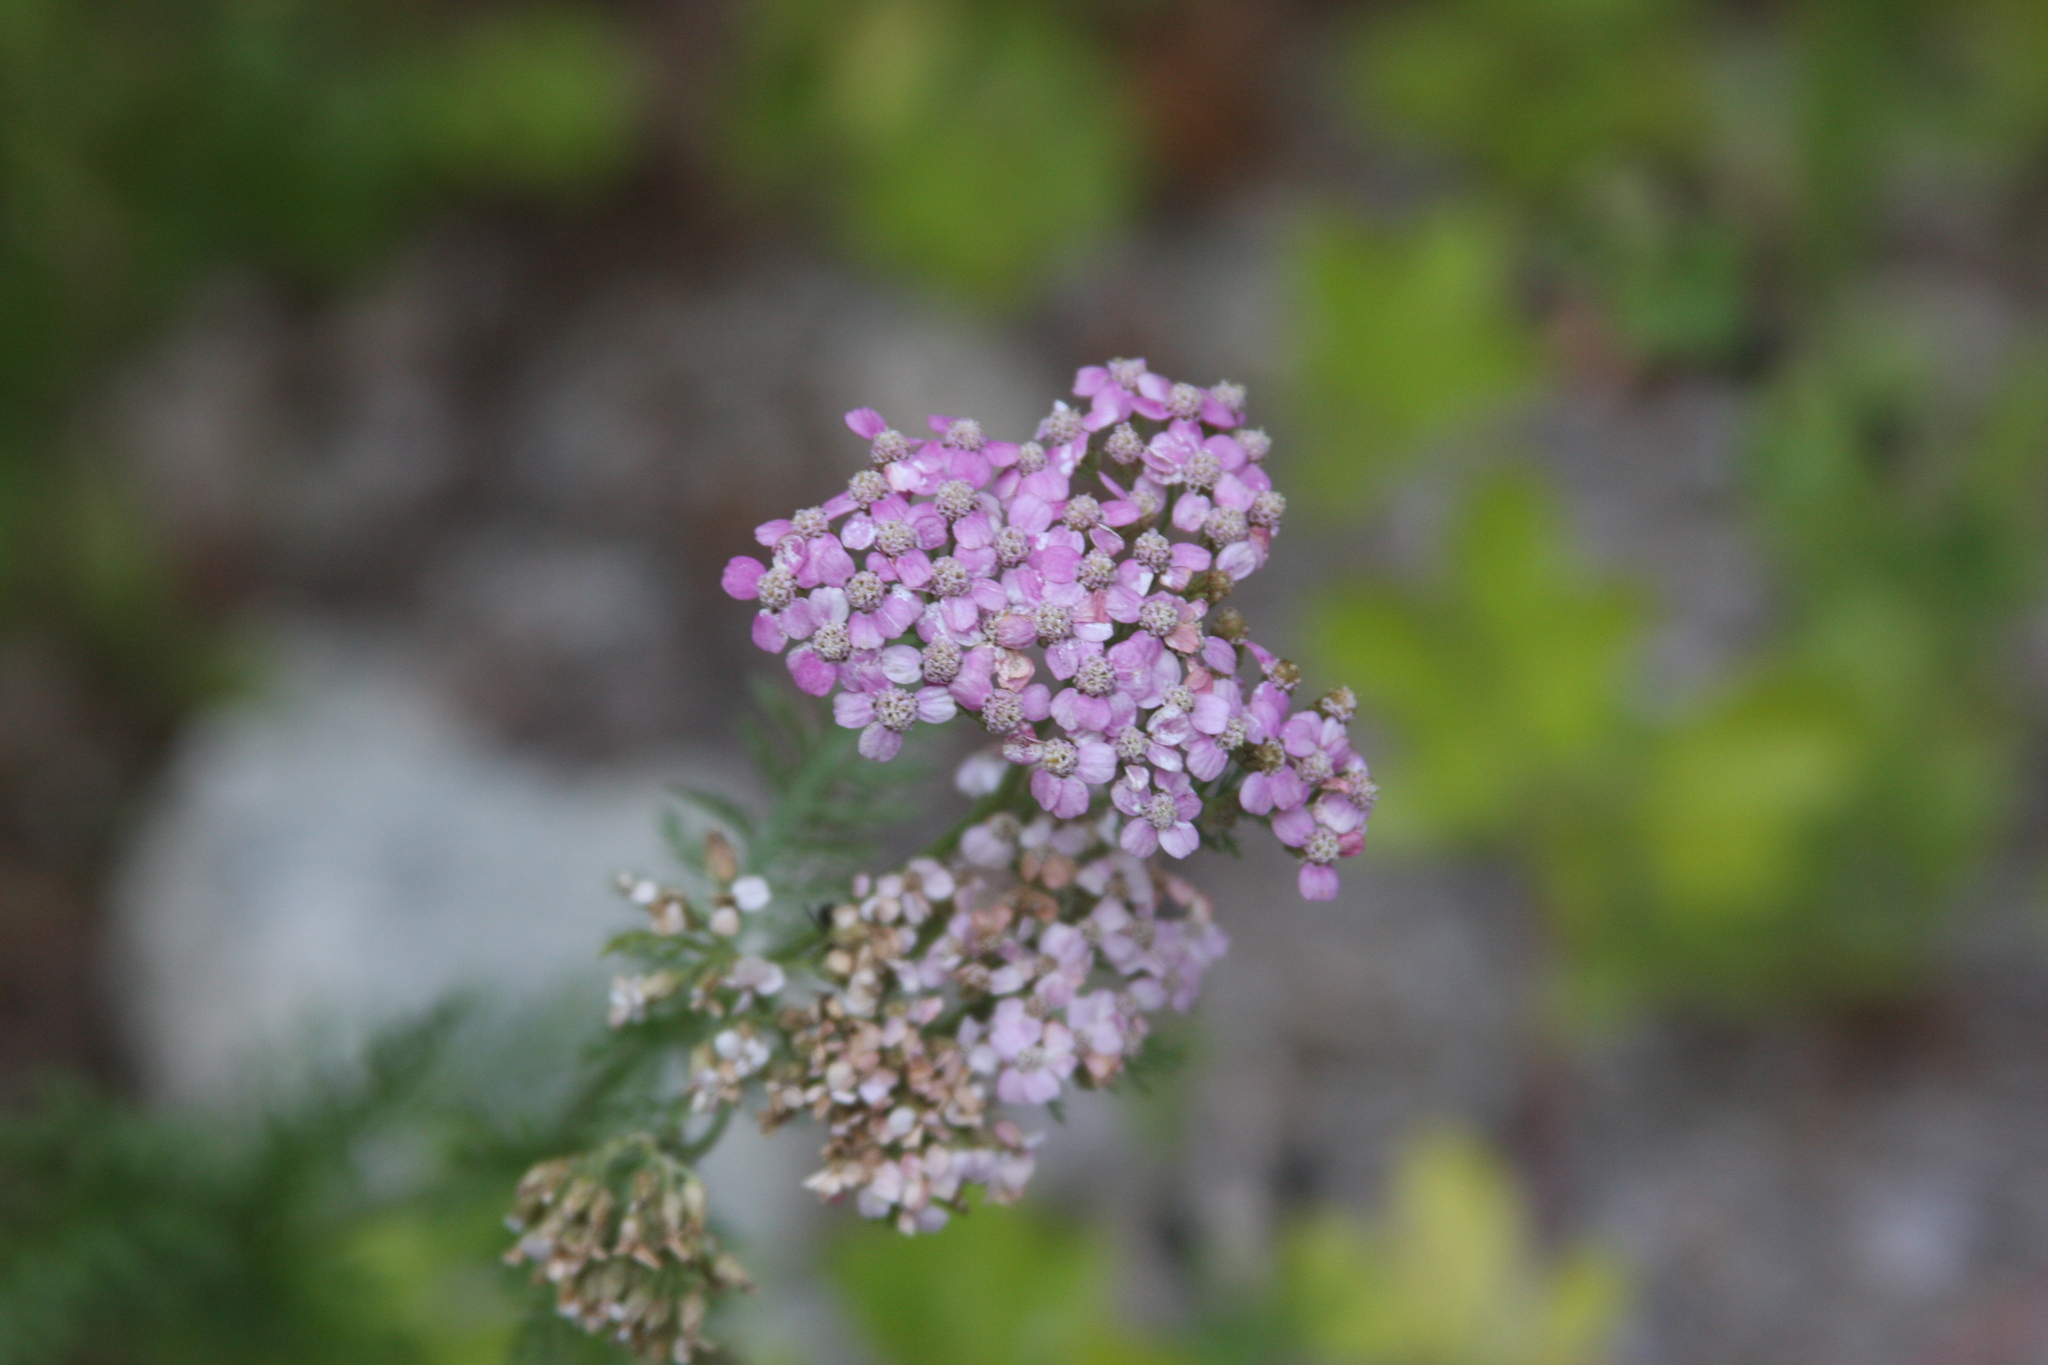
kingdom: Plantae
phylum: Tracheophyta
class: Magnoliopsida
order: Asterales
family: Asteraceae
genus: Achillea
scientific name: Achillea millefolium
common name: Yarrow
